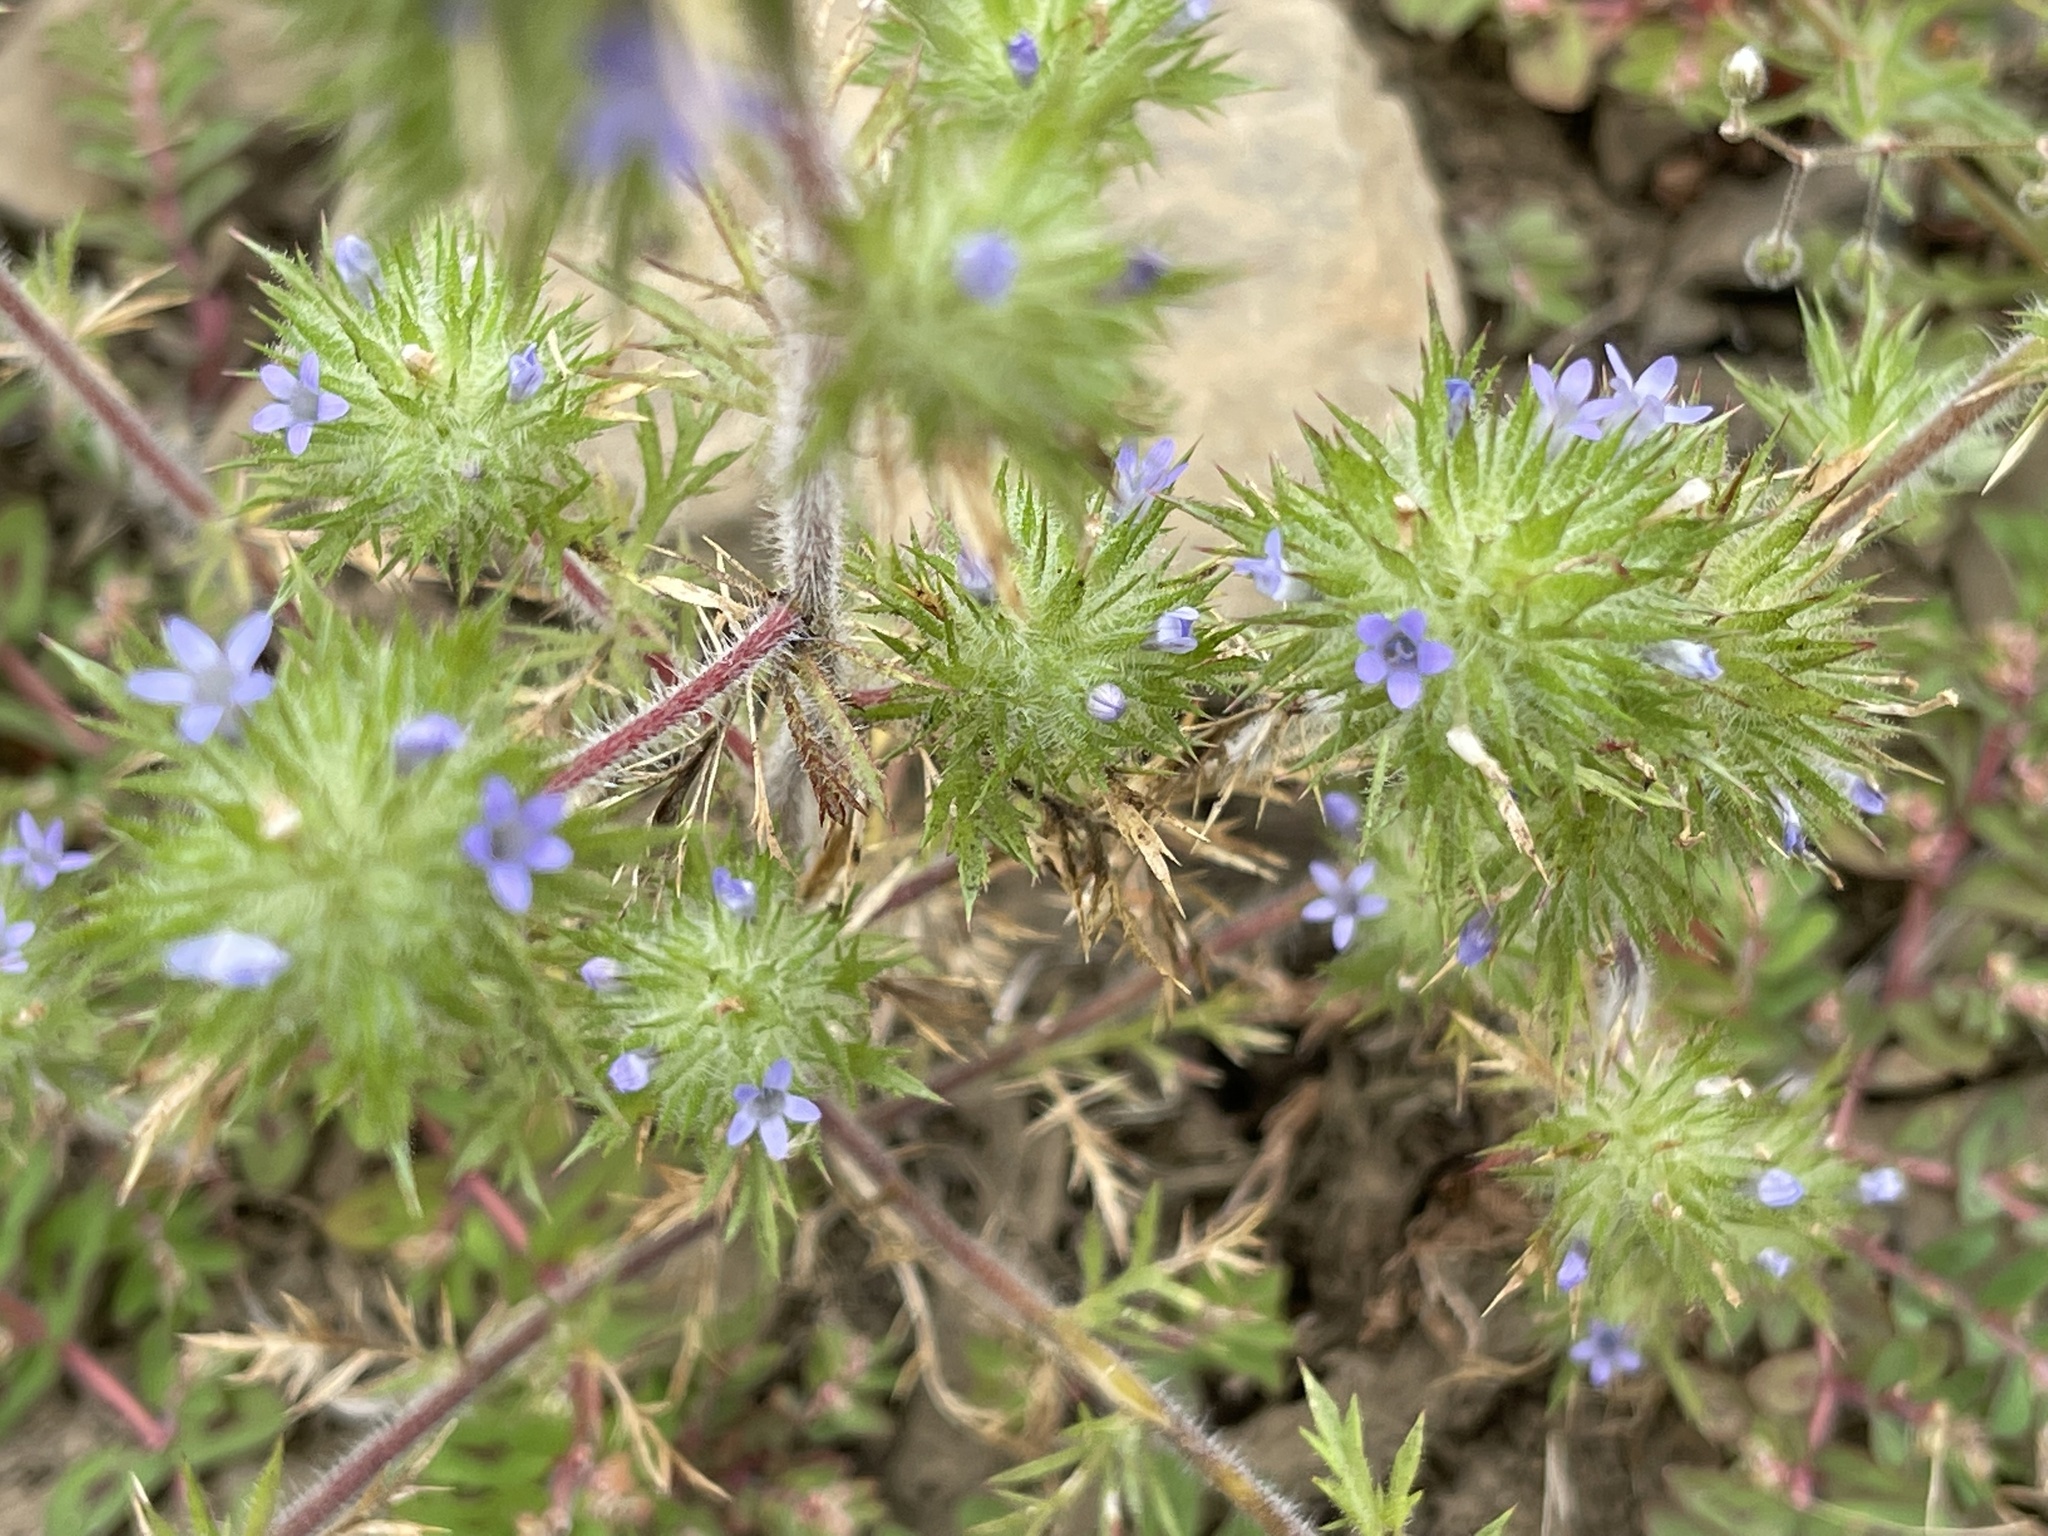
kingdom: Plantae
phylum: Tracheophyta
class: Magnoliopsida
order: Ericales
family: Polemoniaceae
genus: Navarretia
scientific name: Navarretia squarrosa
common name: Skunkweed
